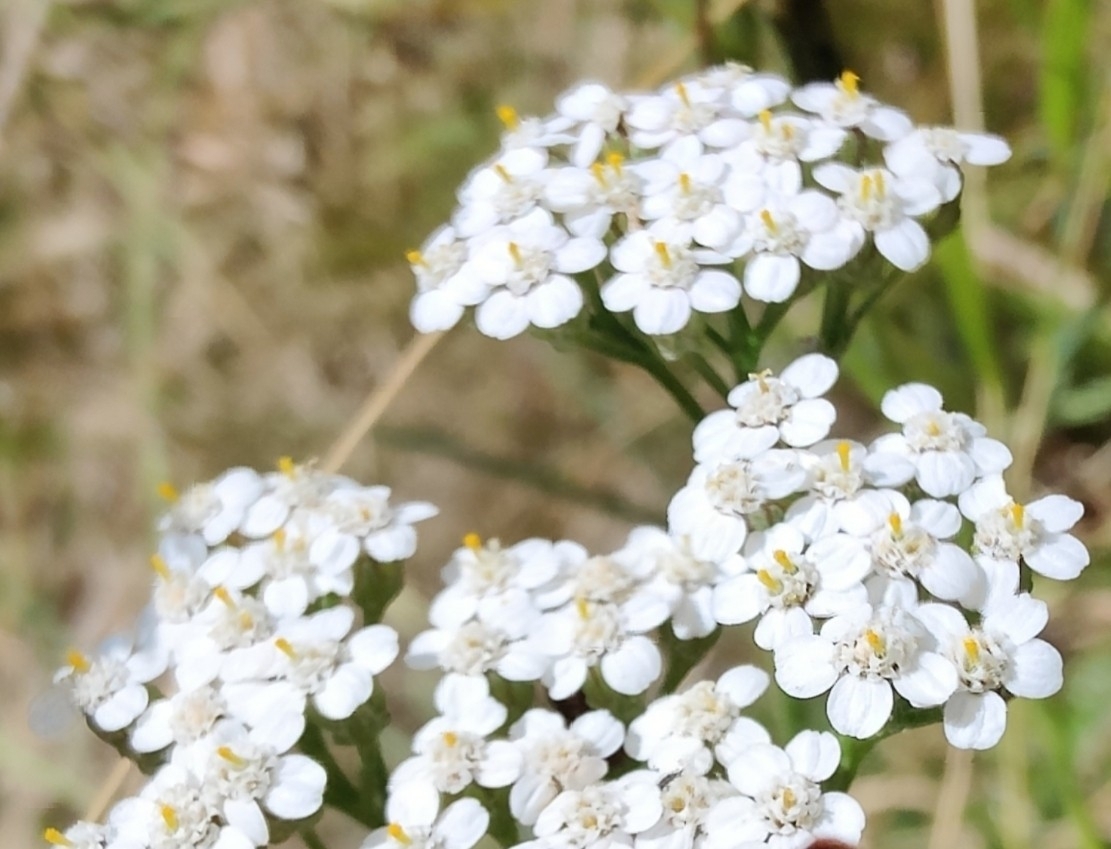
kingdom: Plantae
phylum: Tracheophyta
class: Magnoliopsida
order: Asterales
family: Asteraceae
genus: Achillea
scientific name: Achillea millefolium
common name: Yarrow
